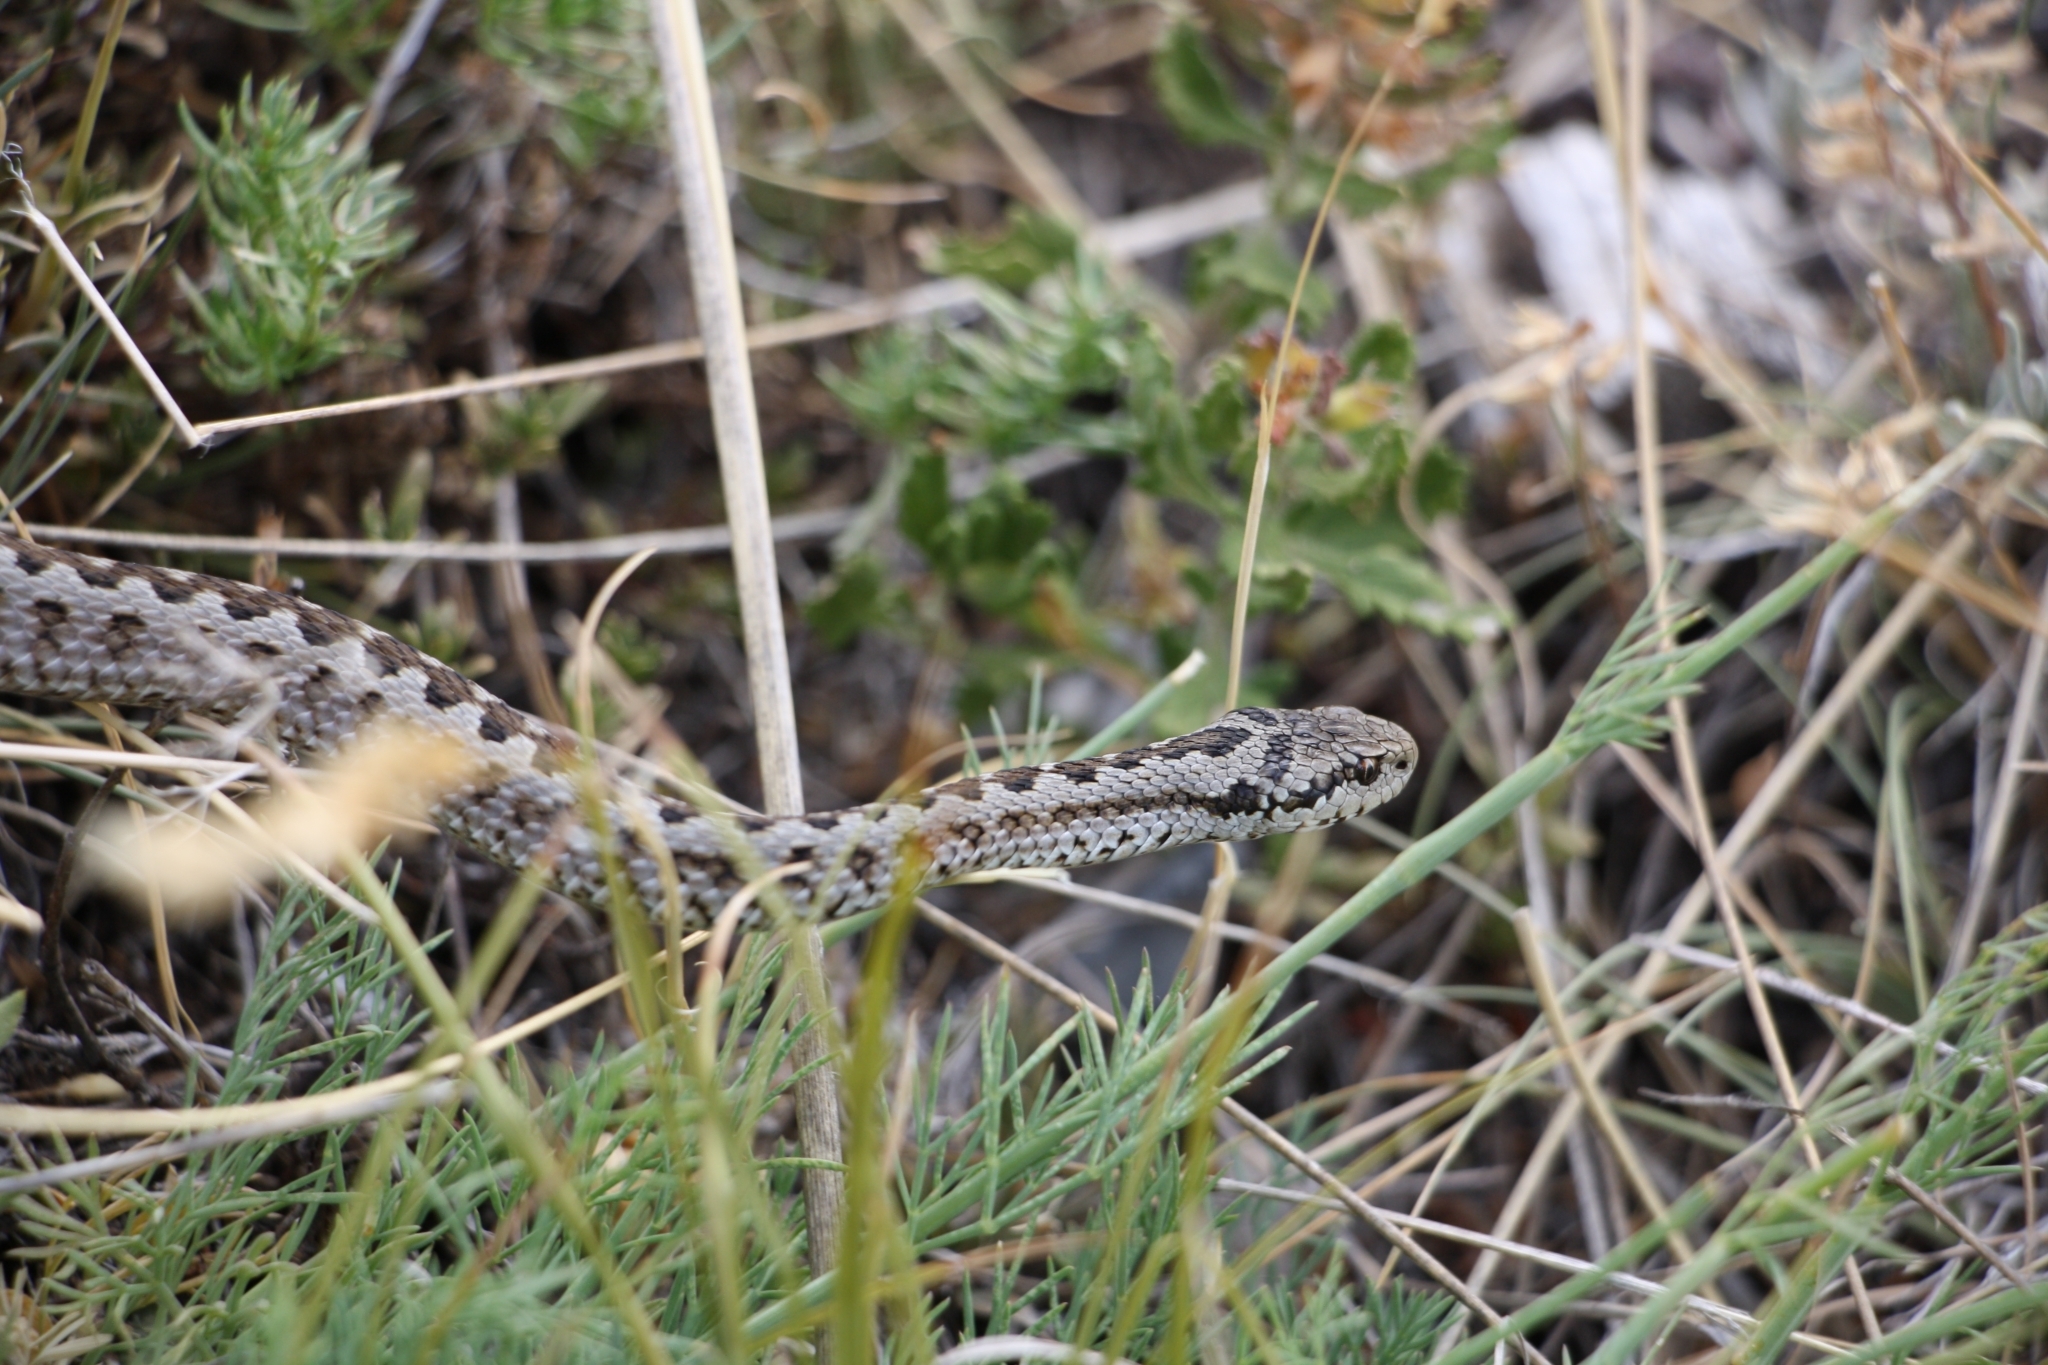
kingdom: Animalia
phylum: Chordata
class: Squamata
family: Viperidae
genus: Vipera
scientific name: Vipera ursinii
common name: Meadow viper
